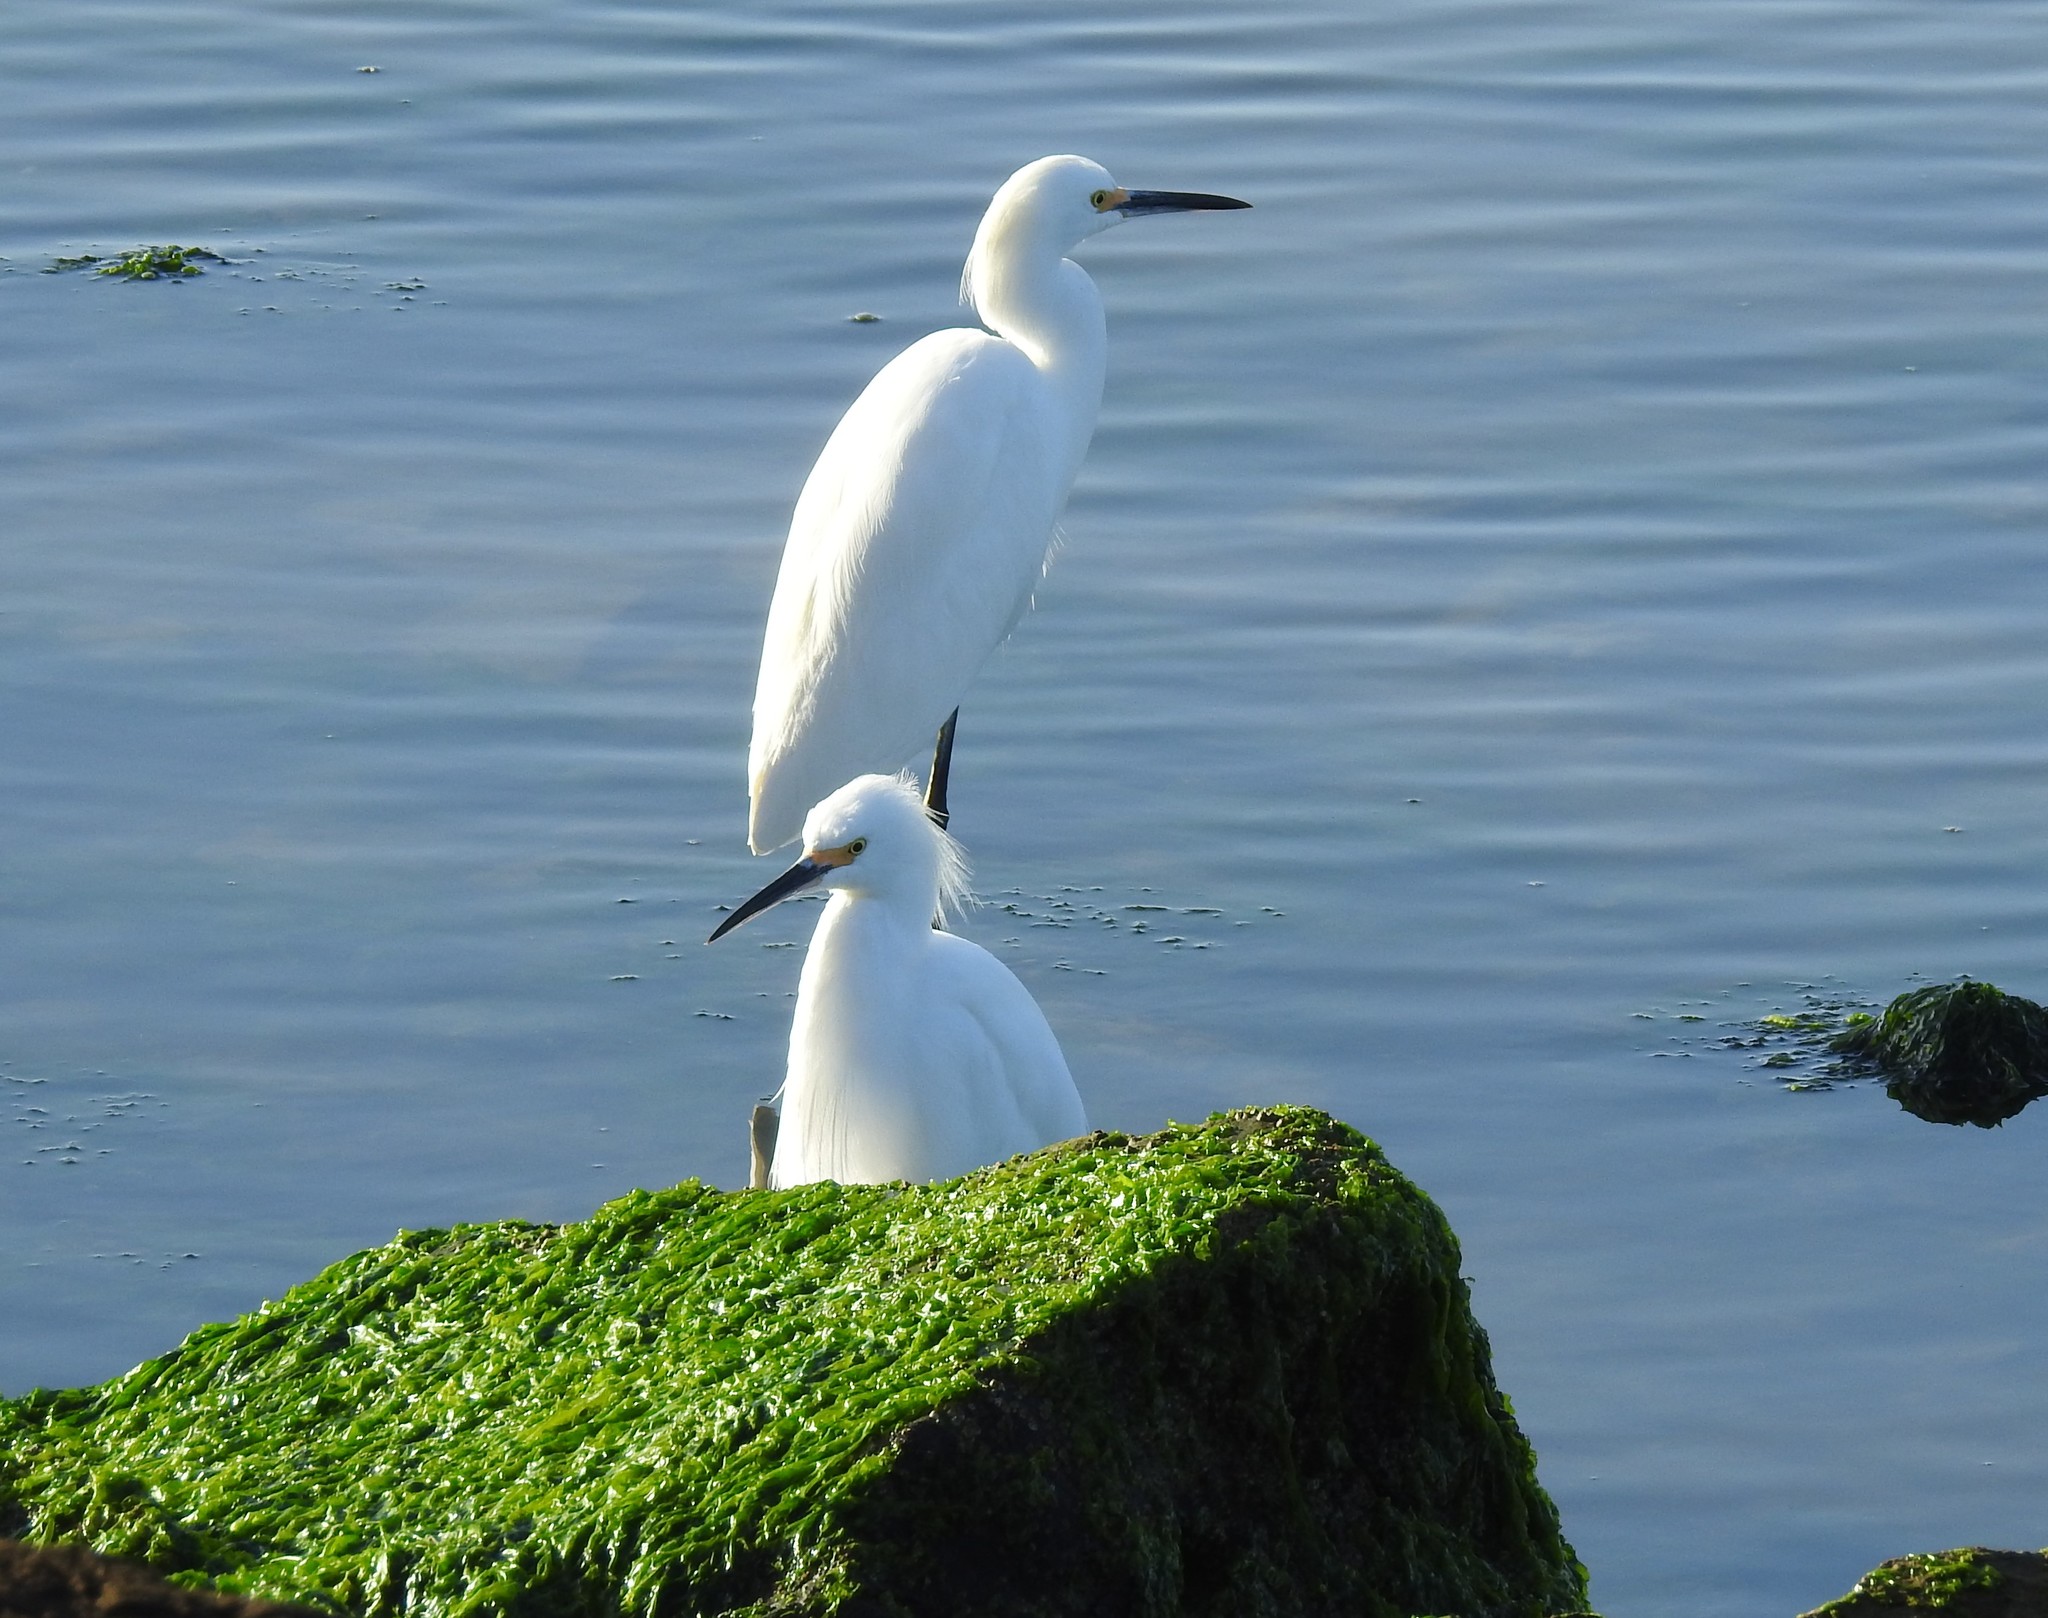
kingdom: Animalia
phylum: Chordata
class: Aves
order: Pelecaniformes
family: Ardeidae
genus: Egretta
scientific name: Egretta thula
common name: Snowy egret
